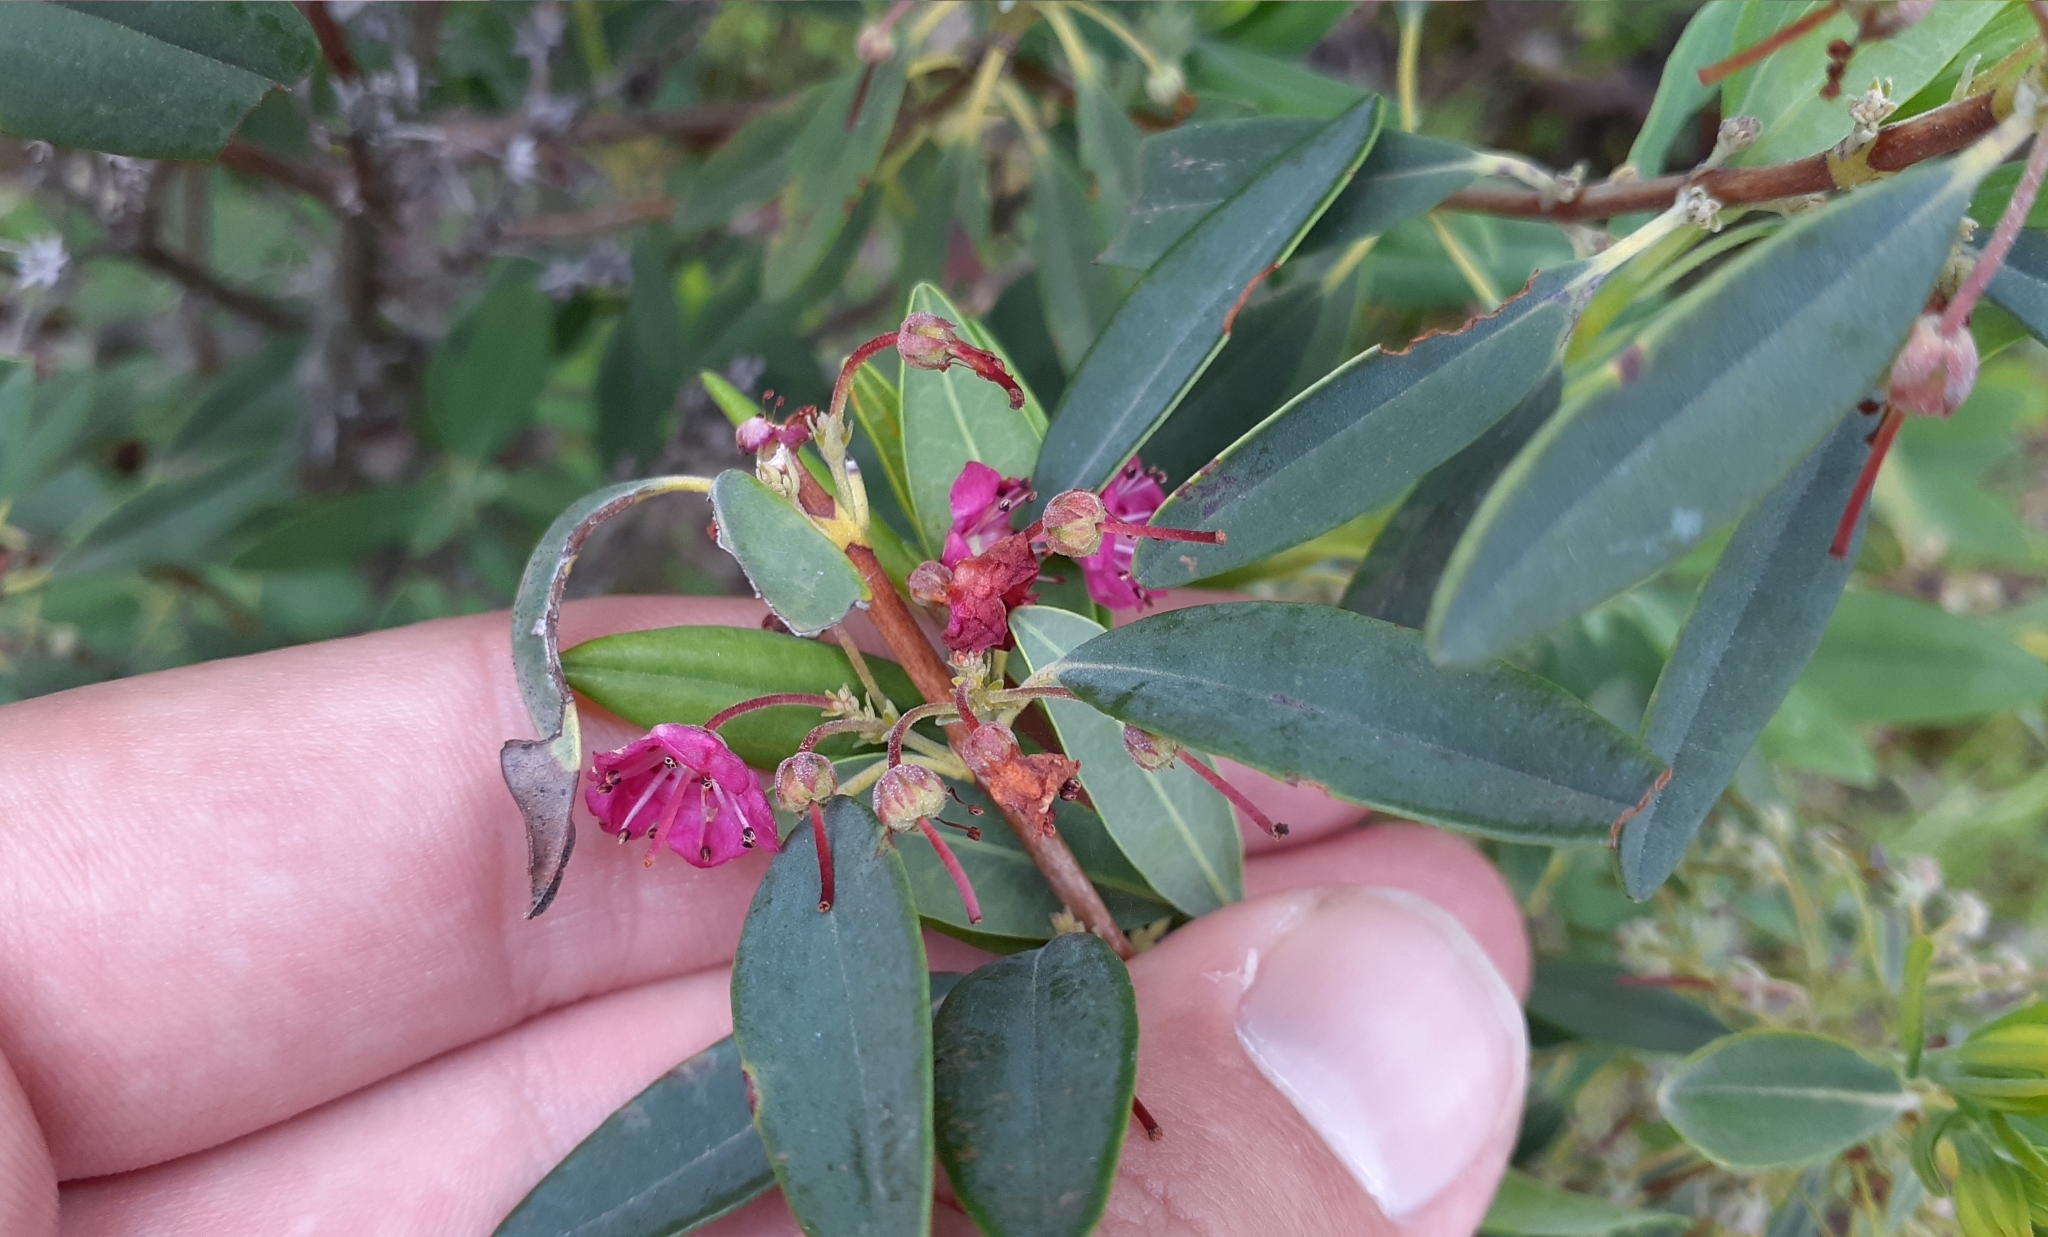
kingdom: Plantae
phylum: Tracheophyta
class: Magnoliopsida
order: Ericales
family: Ericaceae
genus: Kalmia
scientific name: Kalmia angustifolia
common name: Sheep-laurel
